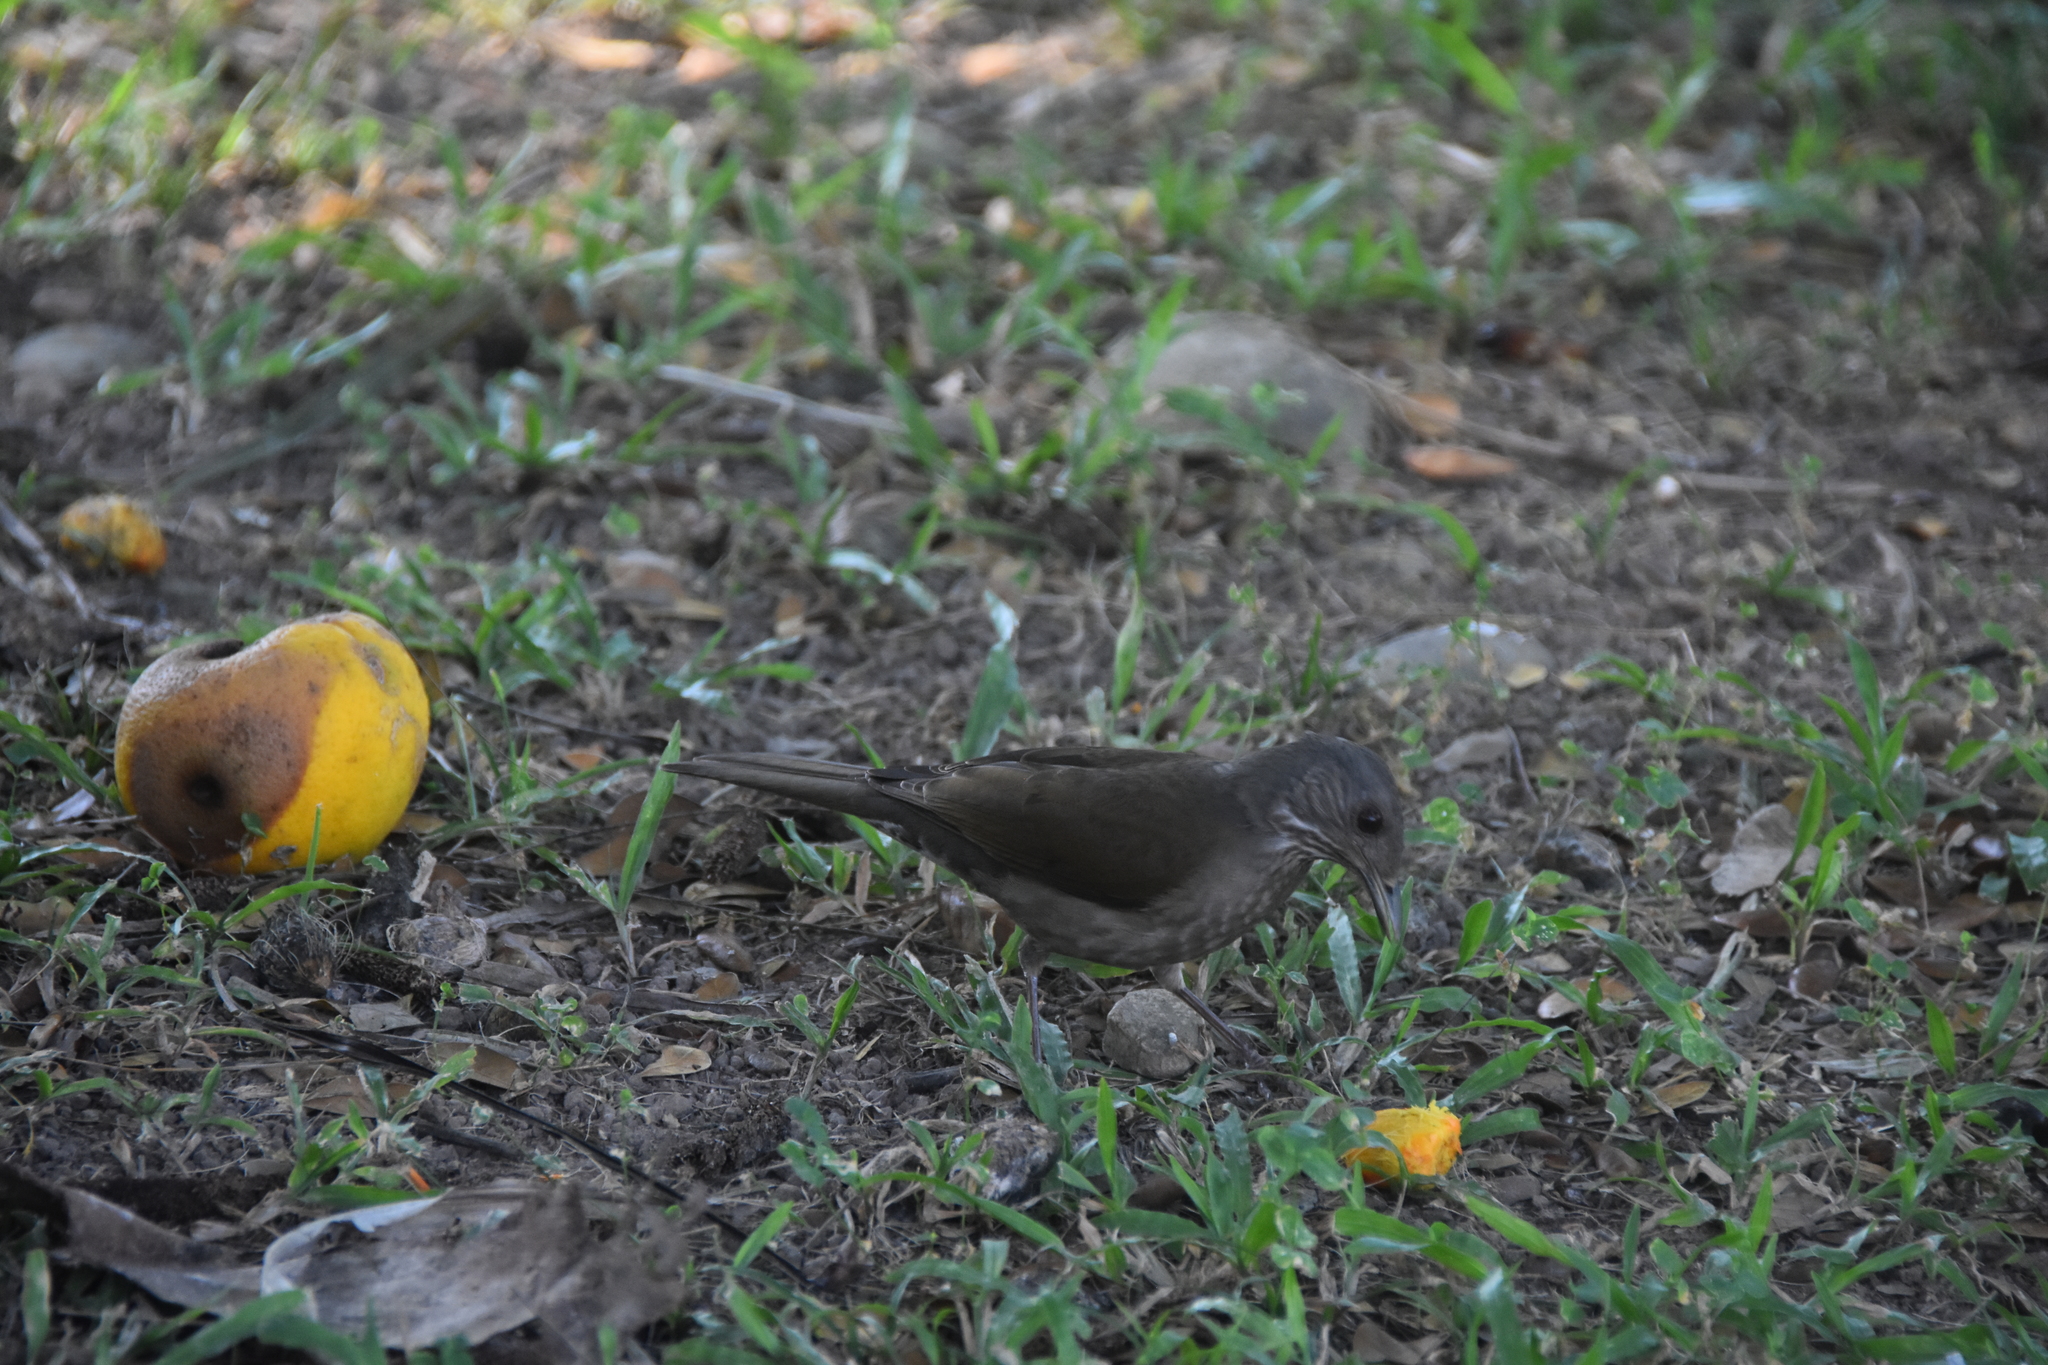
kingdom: Animalia
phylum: Chordata
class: Aves
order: Passeriformes
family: Turdidae
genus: Turdus
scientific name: Turdus leucomelas
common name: Pale-breasted thrush
